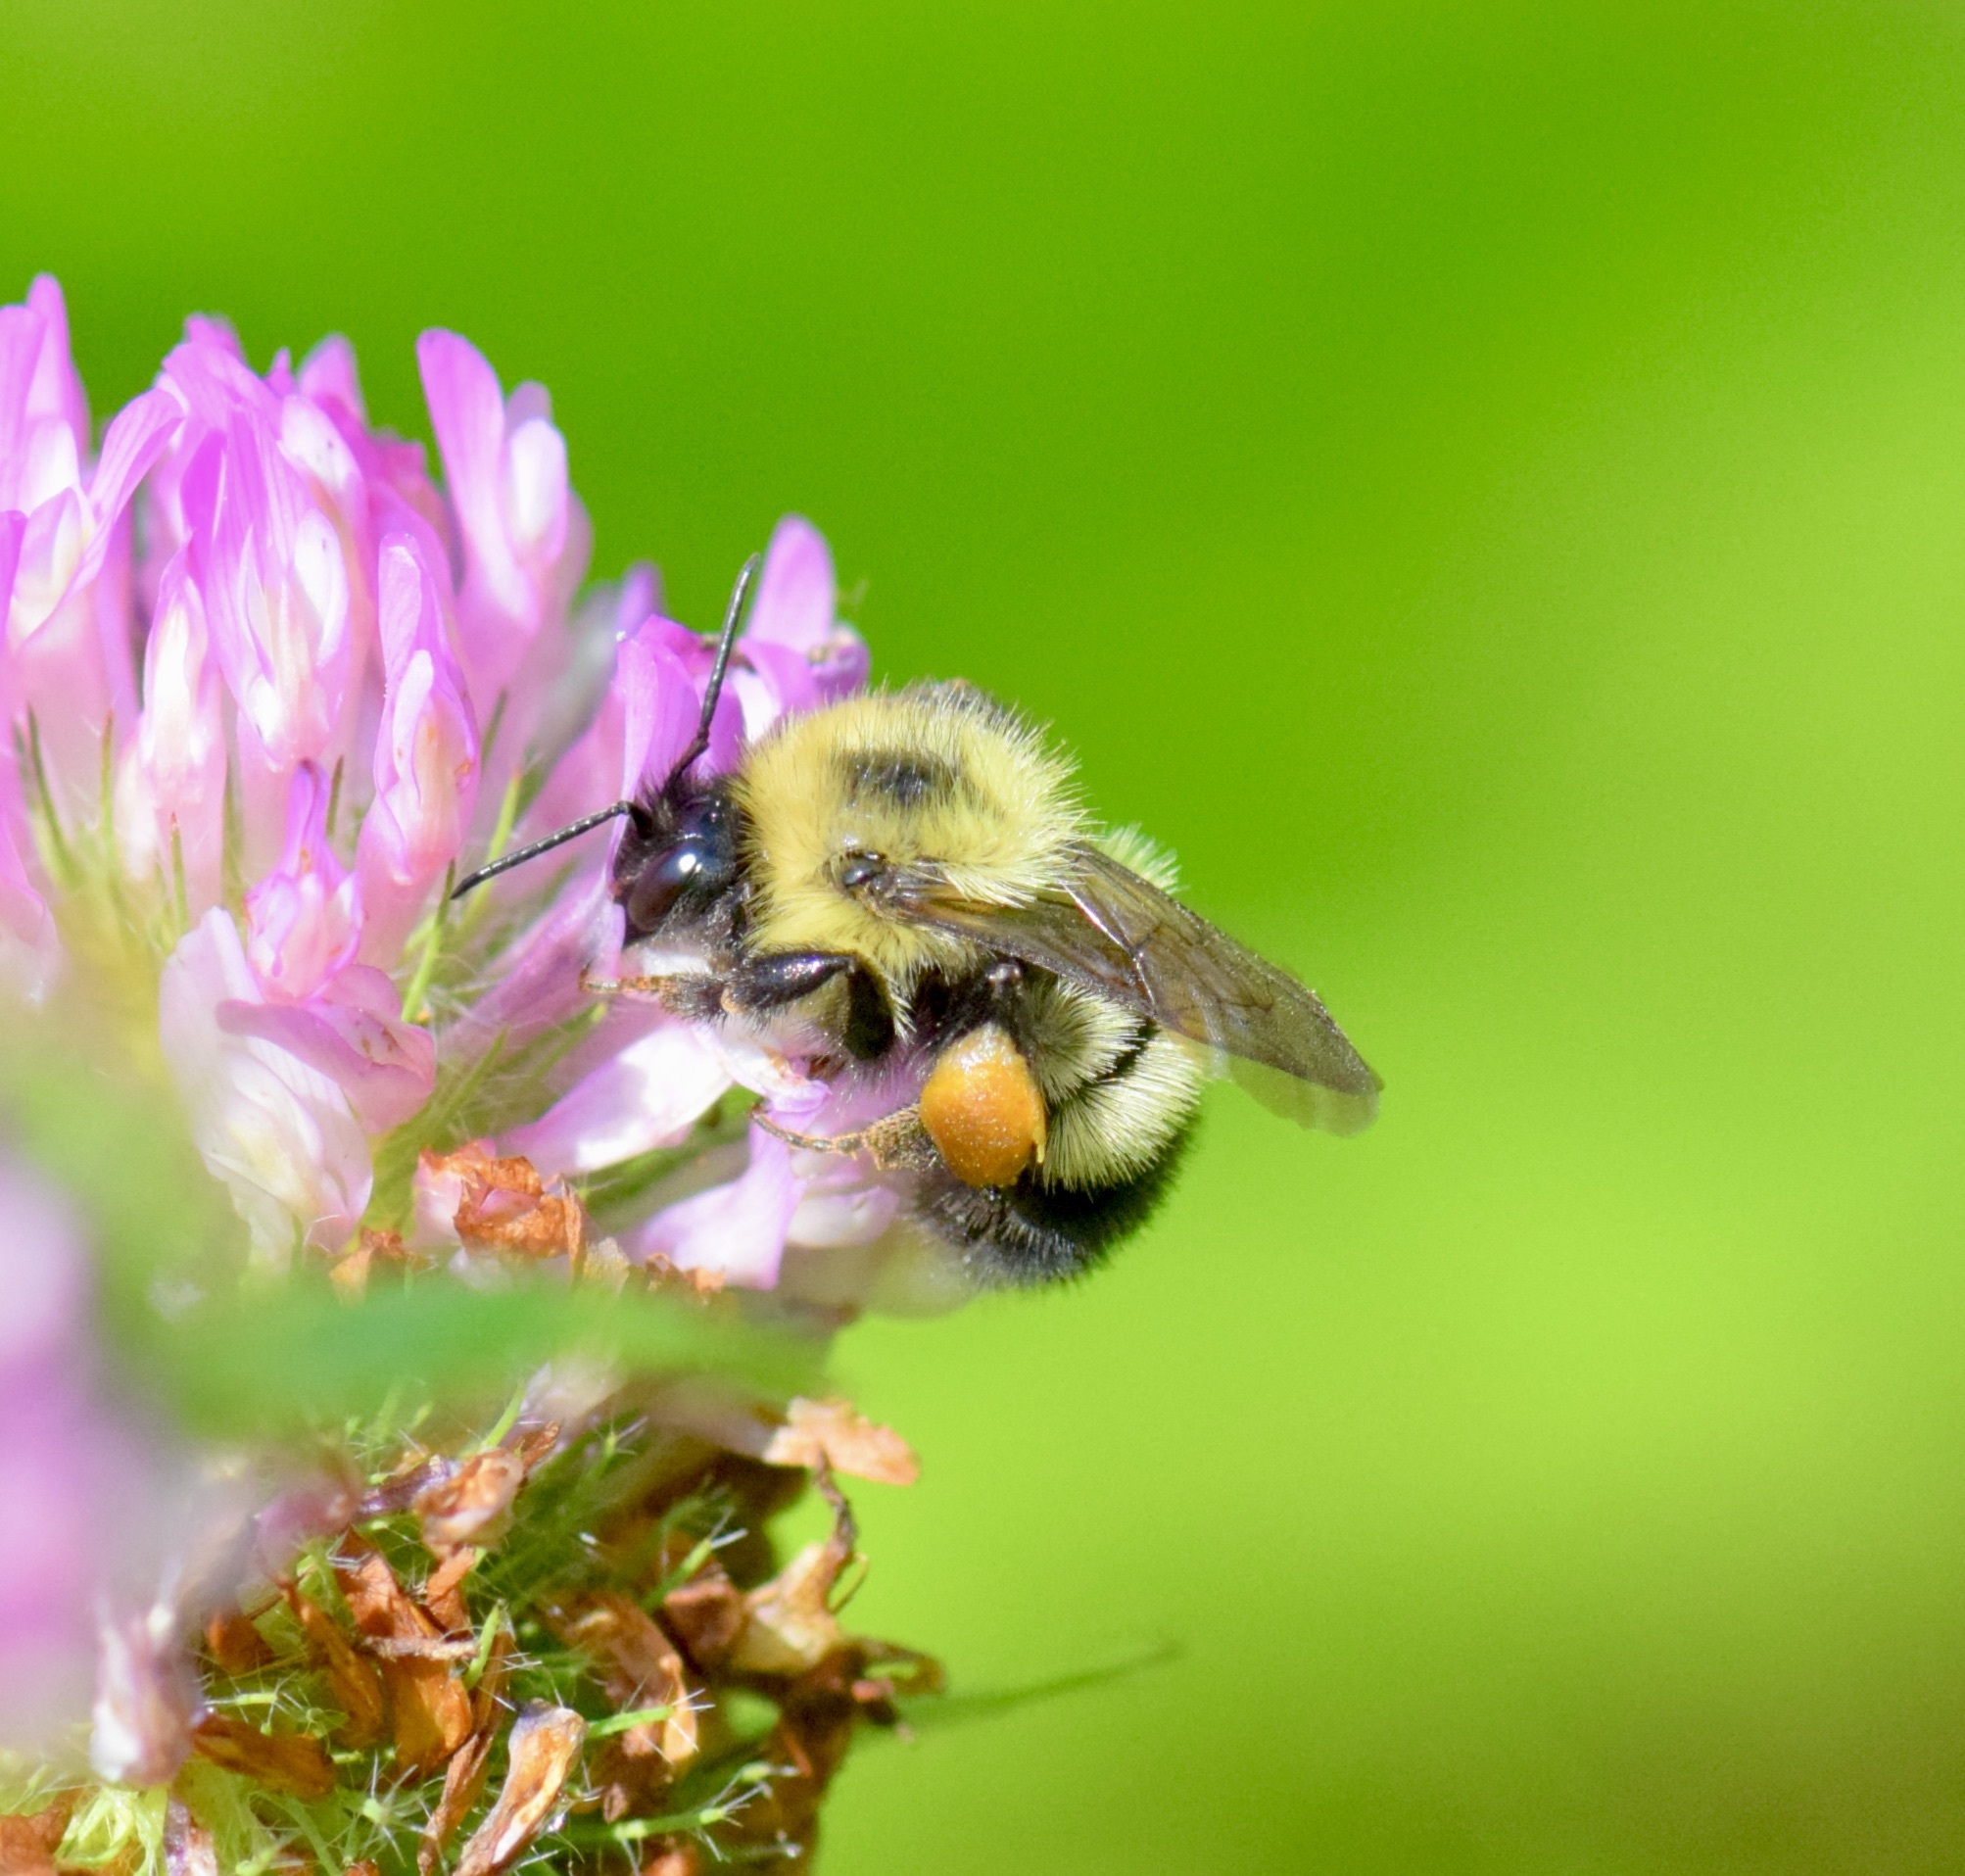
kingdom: Animalia
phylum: Arthropoda
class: Insecta
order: Hymenoptera
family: Apidae
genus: Pyrobombus
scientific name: Pyrobombus
